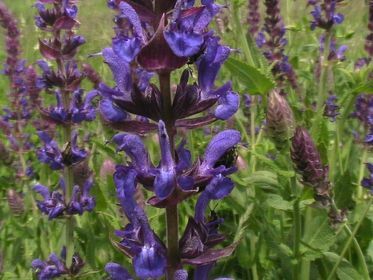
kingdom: Plantae
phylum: Tracheophyta
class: Magnoliopsida
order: Lamiales
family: Lamiaceae
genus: Salvia
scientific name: Salvia nemorosa
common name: Balkan clary
